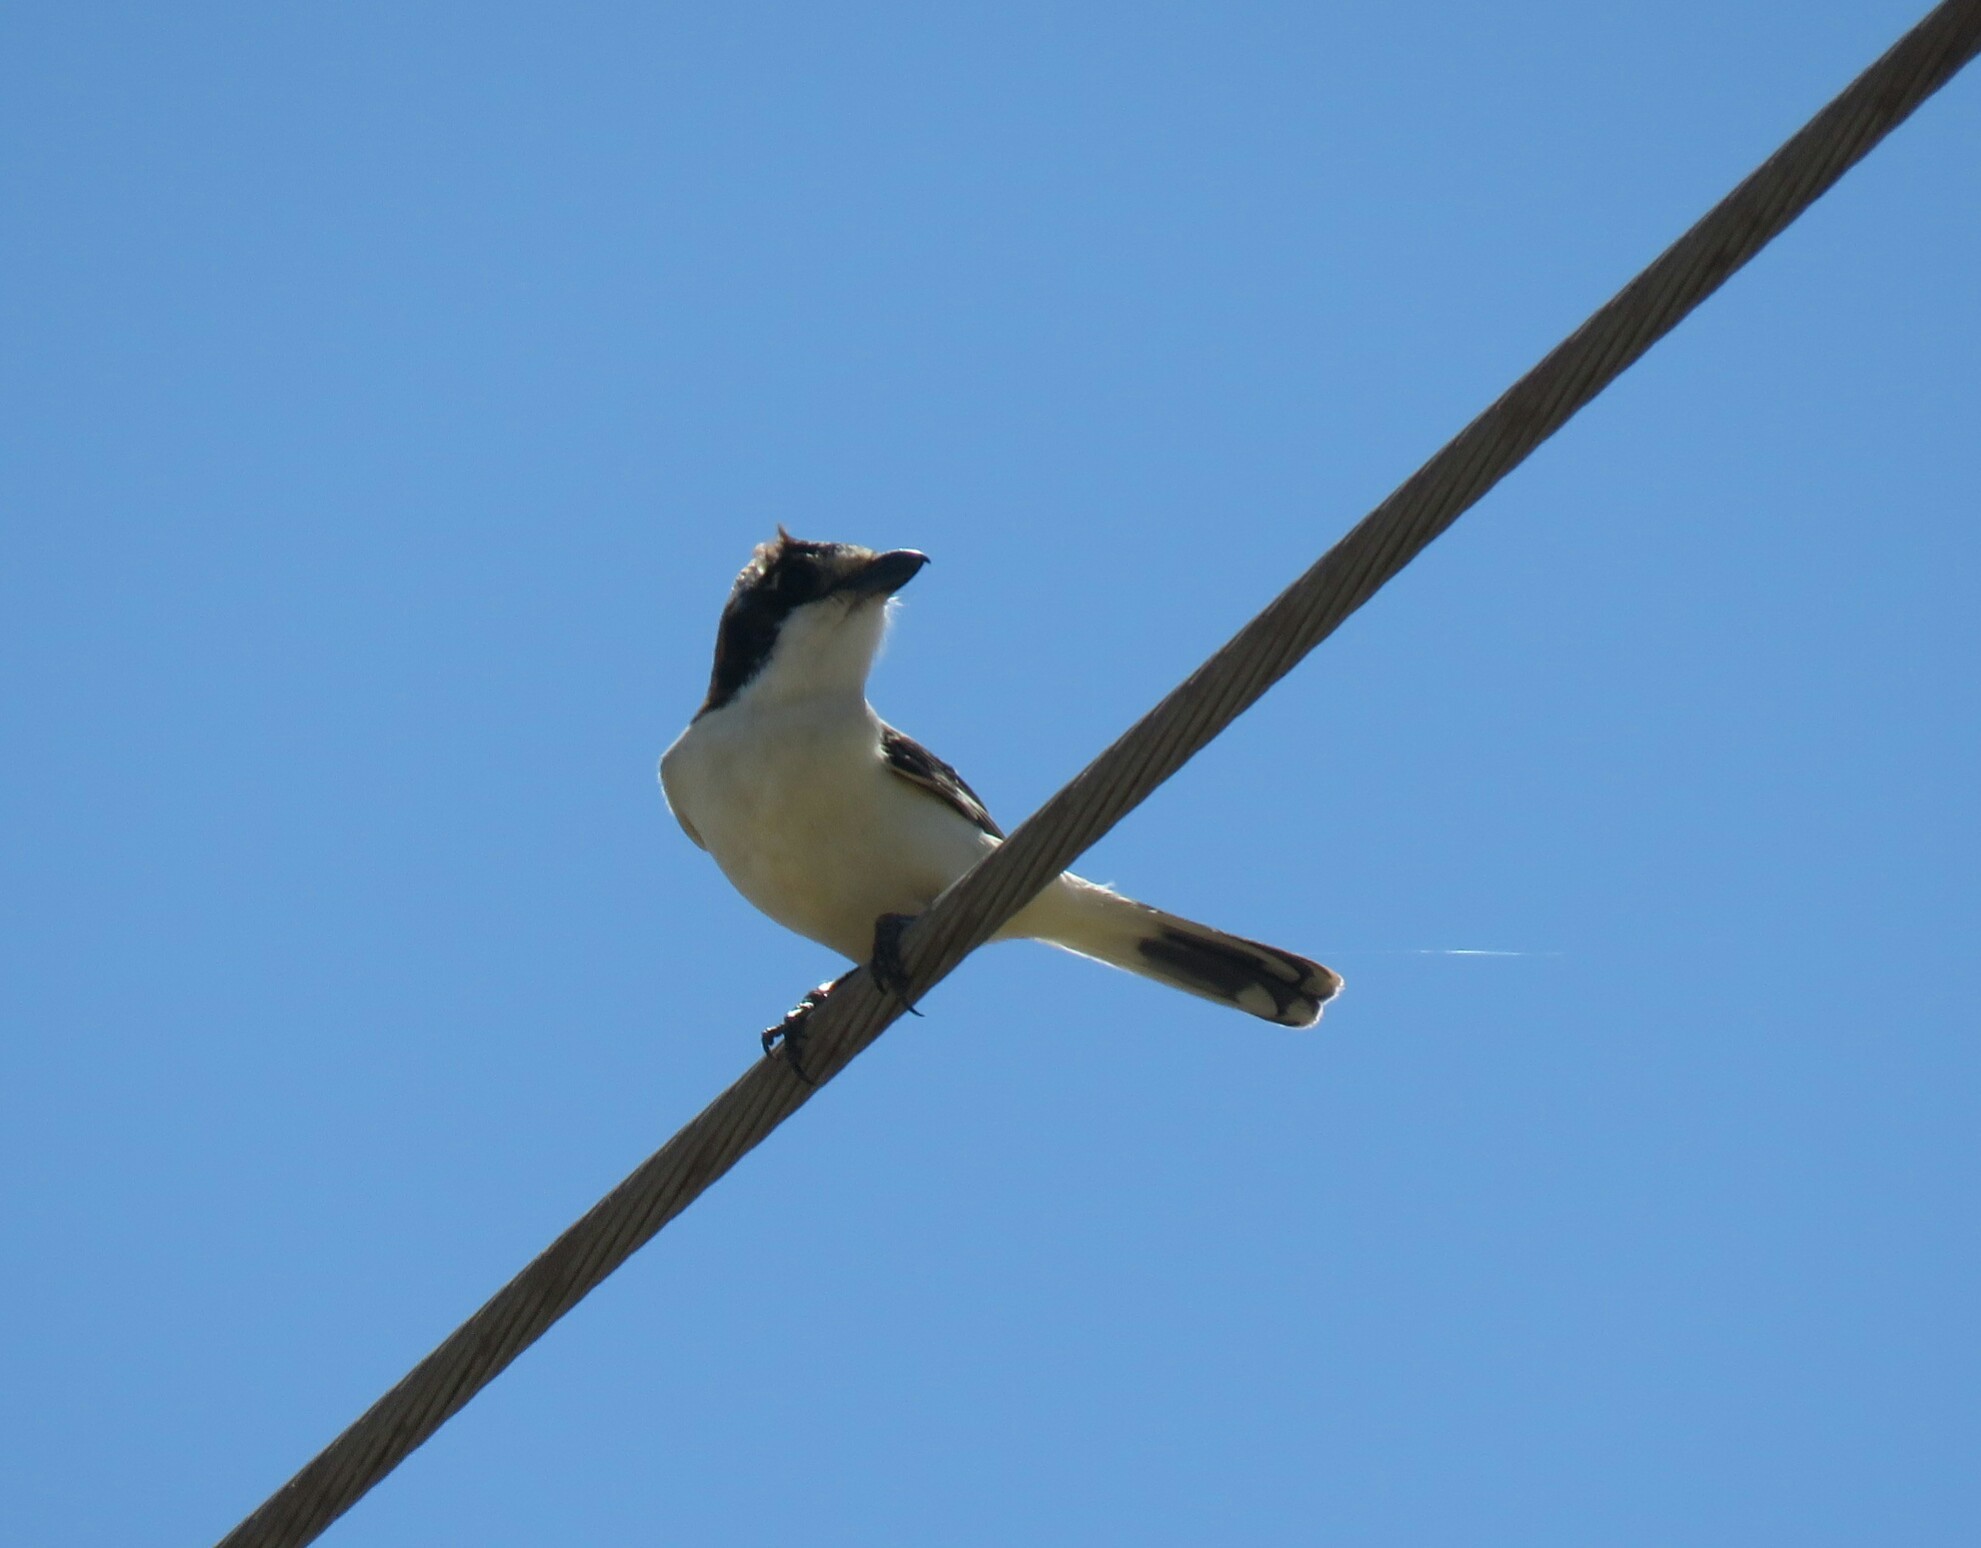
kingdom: Animalia
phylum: Chordata
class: Aves
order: Passeriformes
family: Laniidae
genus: Lanius
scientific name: Lanius senator
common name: Woodchat shrike
